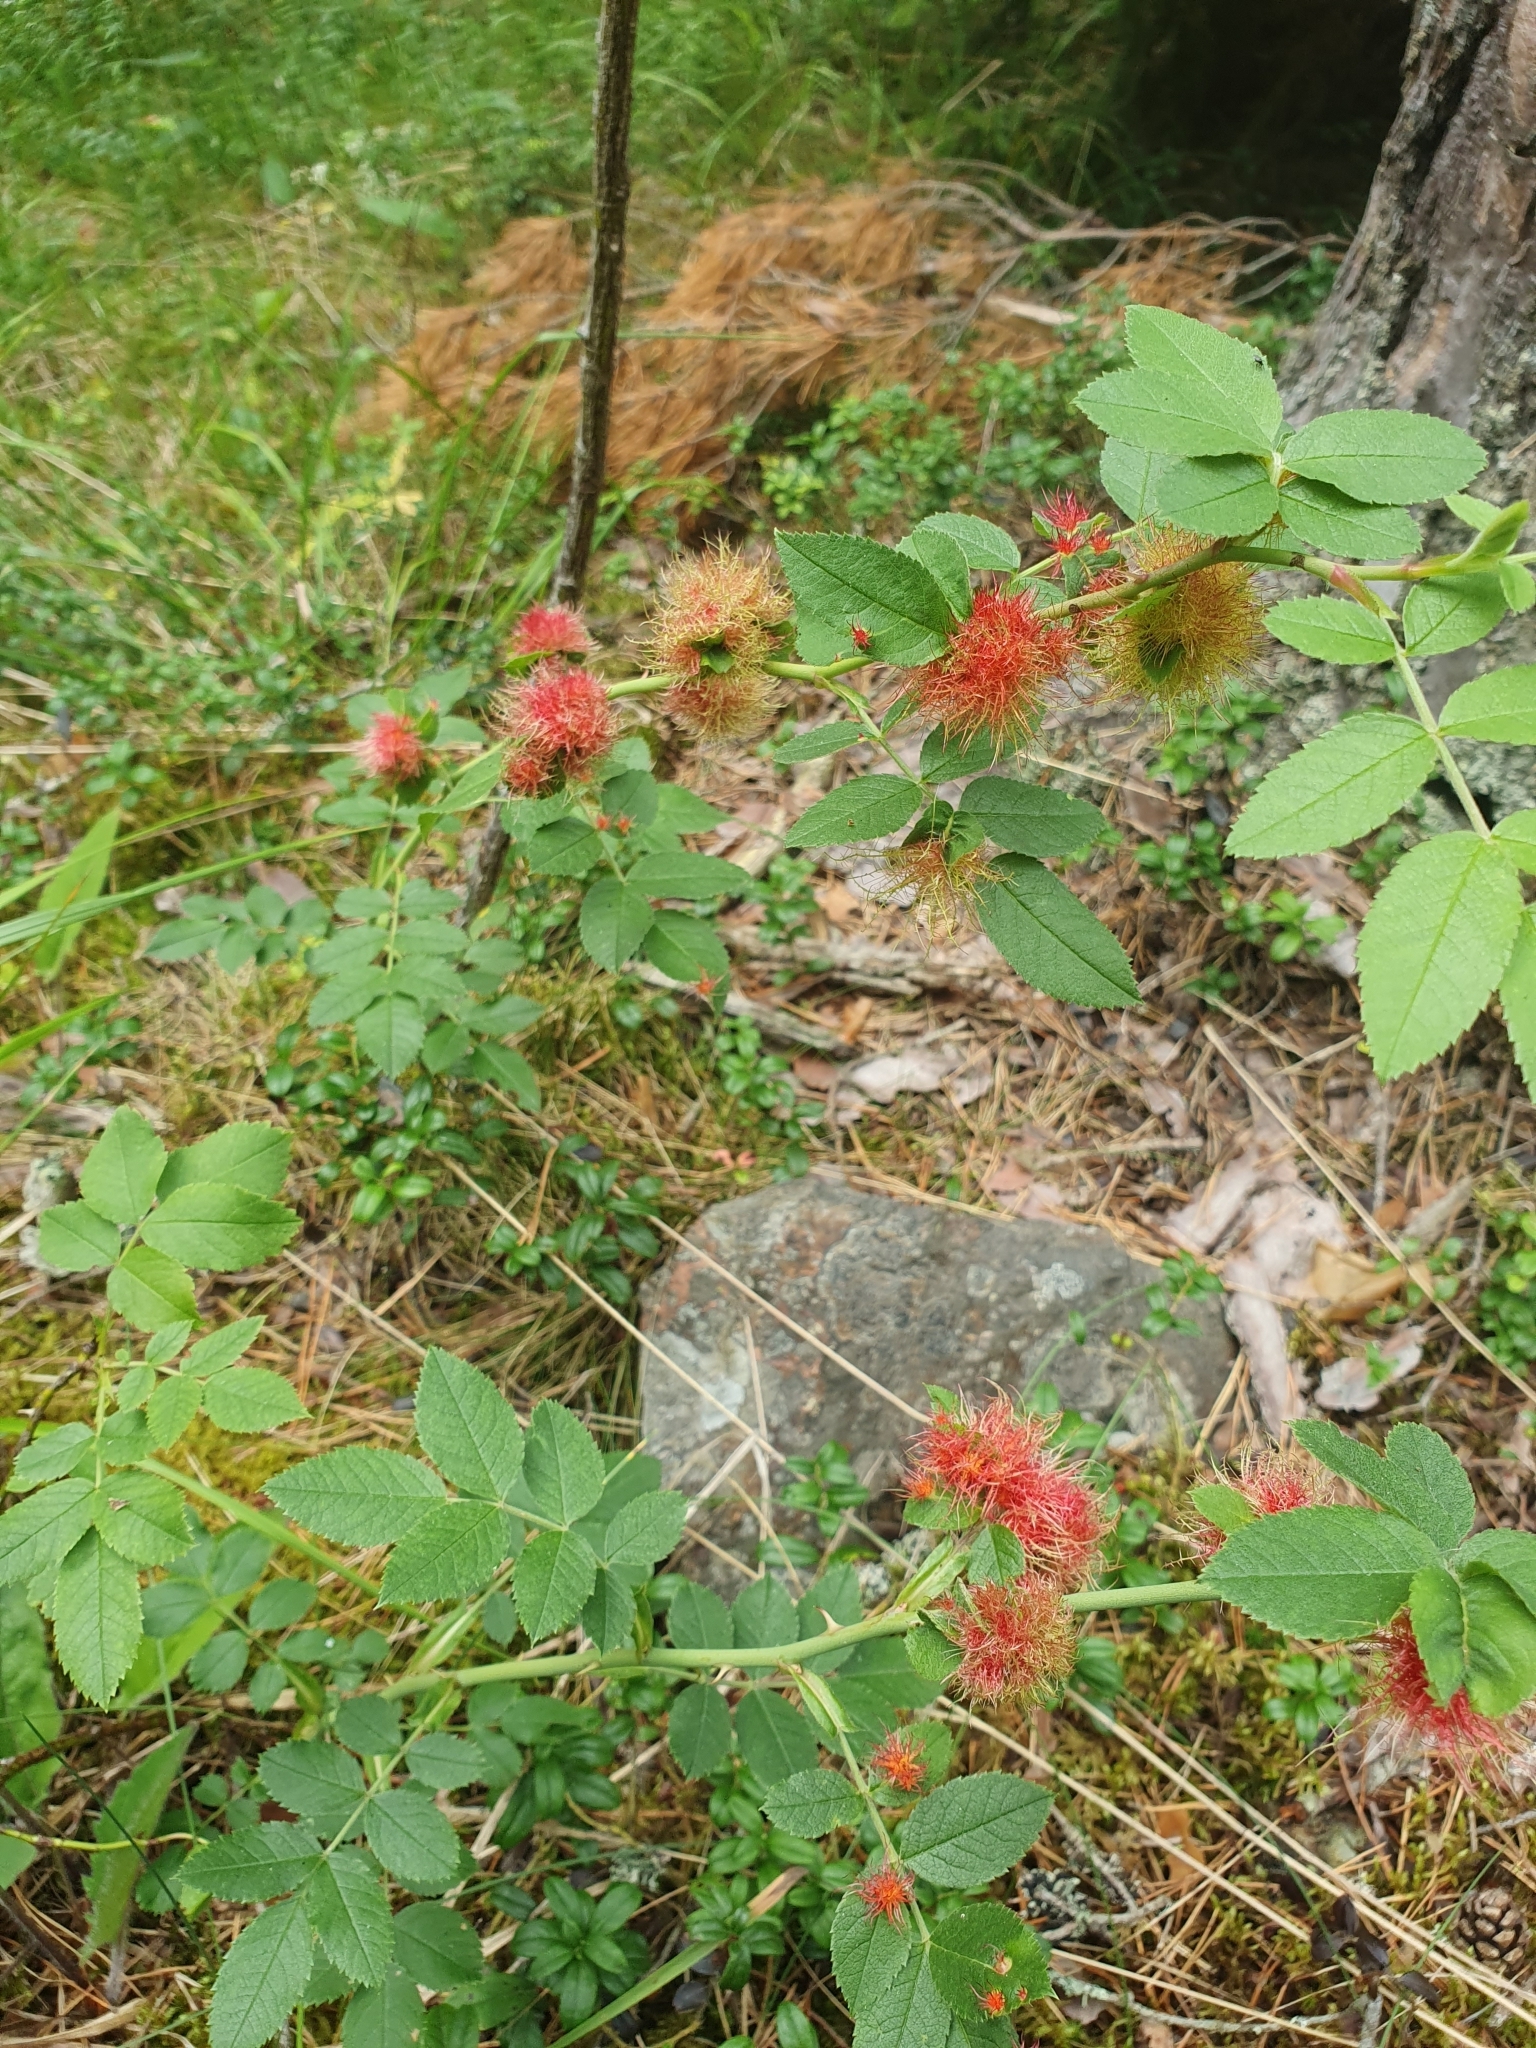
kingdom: Animalia
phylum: Arthropoda
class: Insecta
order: Hymenoptera
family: Cynipidae
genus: Diplolepis
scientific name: Diplolepis rosae
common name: Bedeguar gall
